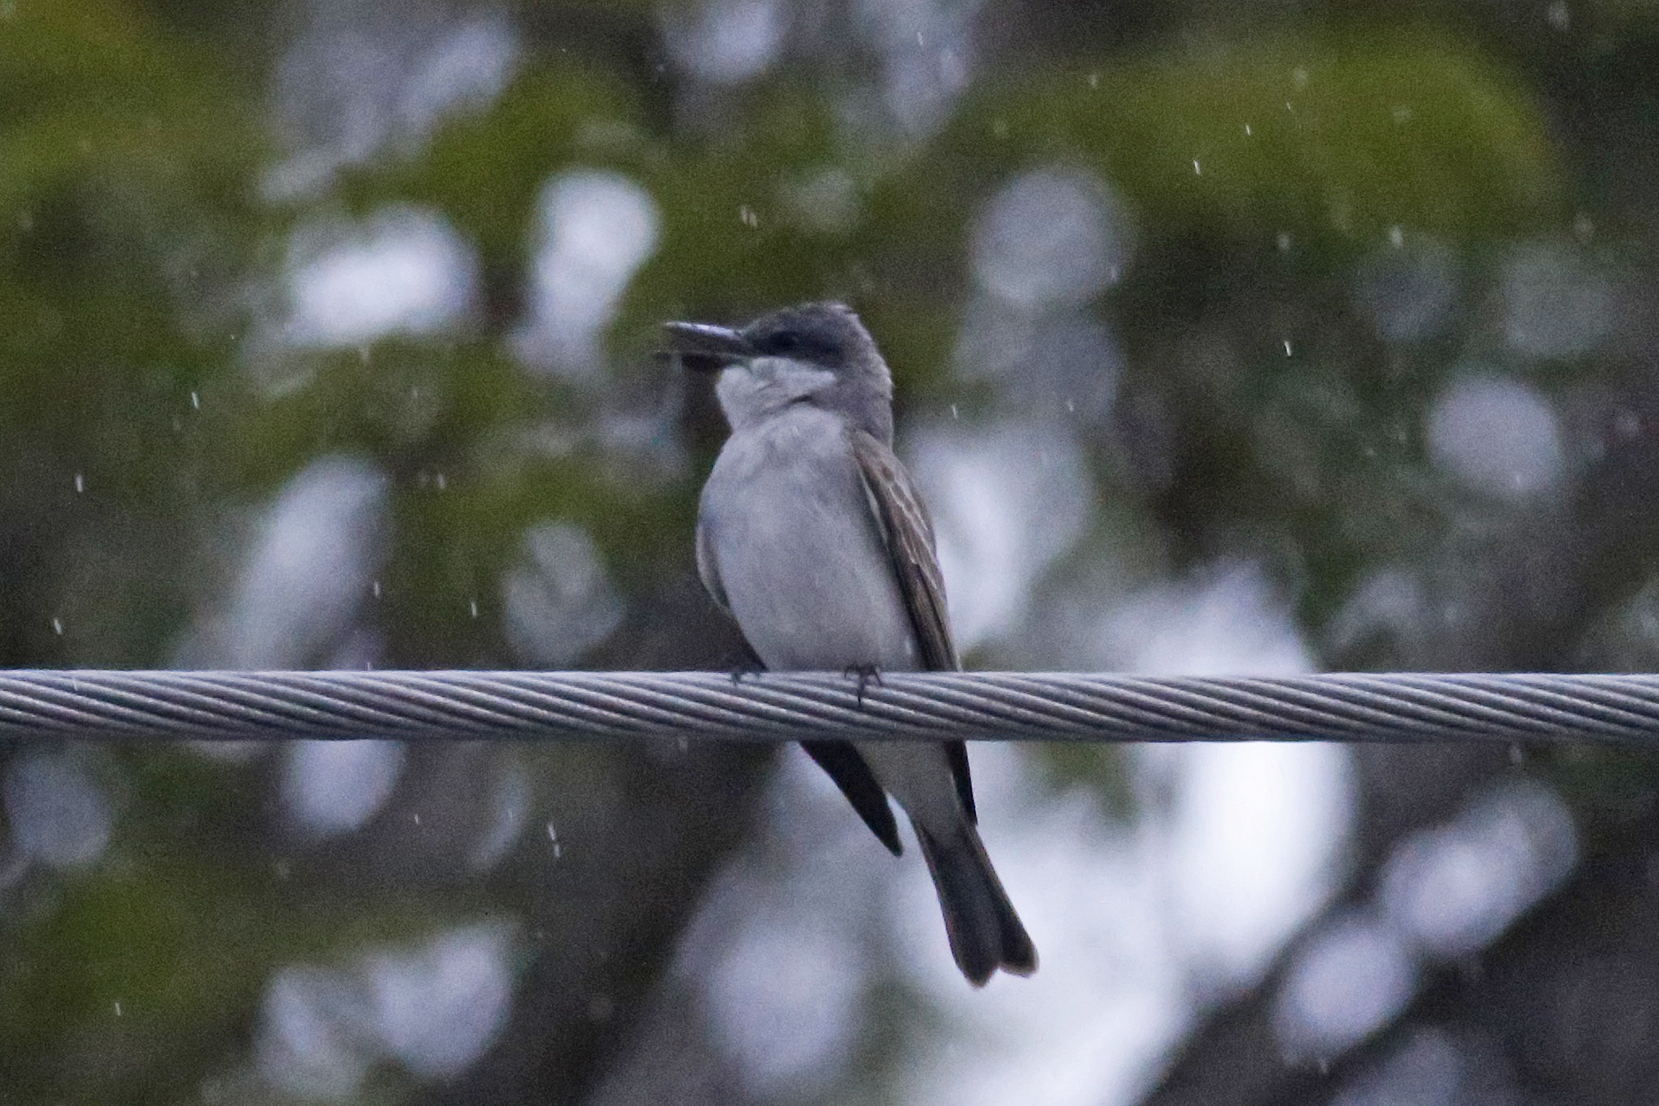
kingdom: Animalia
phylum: Chordata
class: Aves
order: Passeriformes
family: Tyrannidae
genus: Tyrannus
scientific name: Tyrannus dominicensis
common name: Gray kingbird
